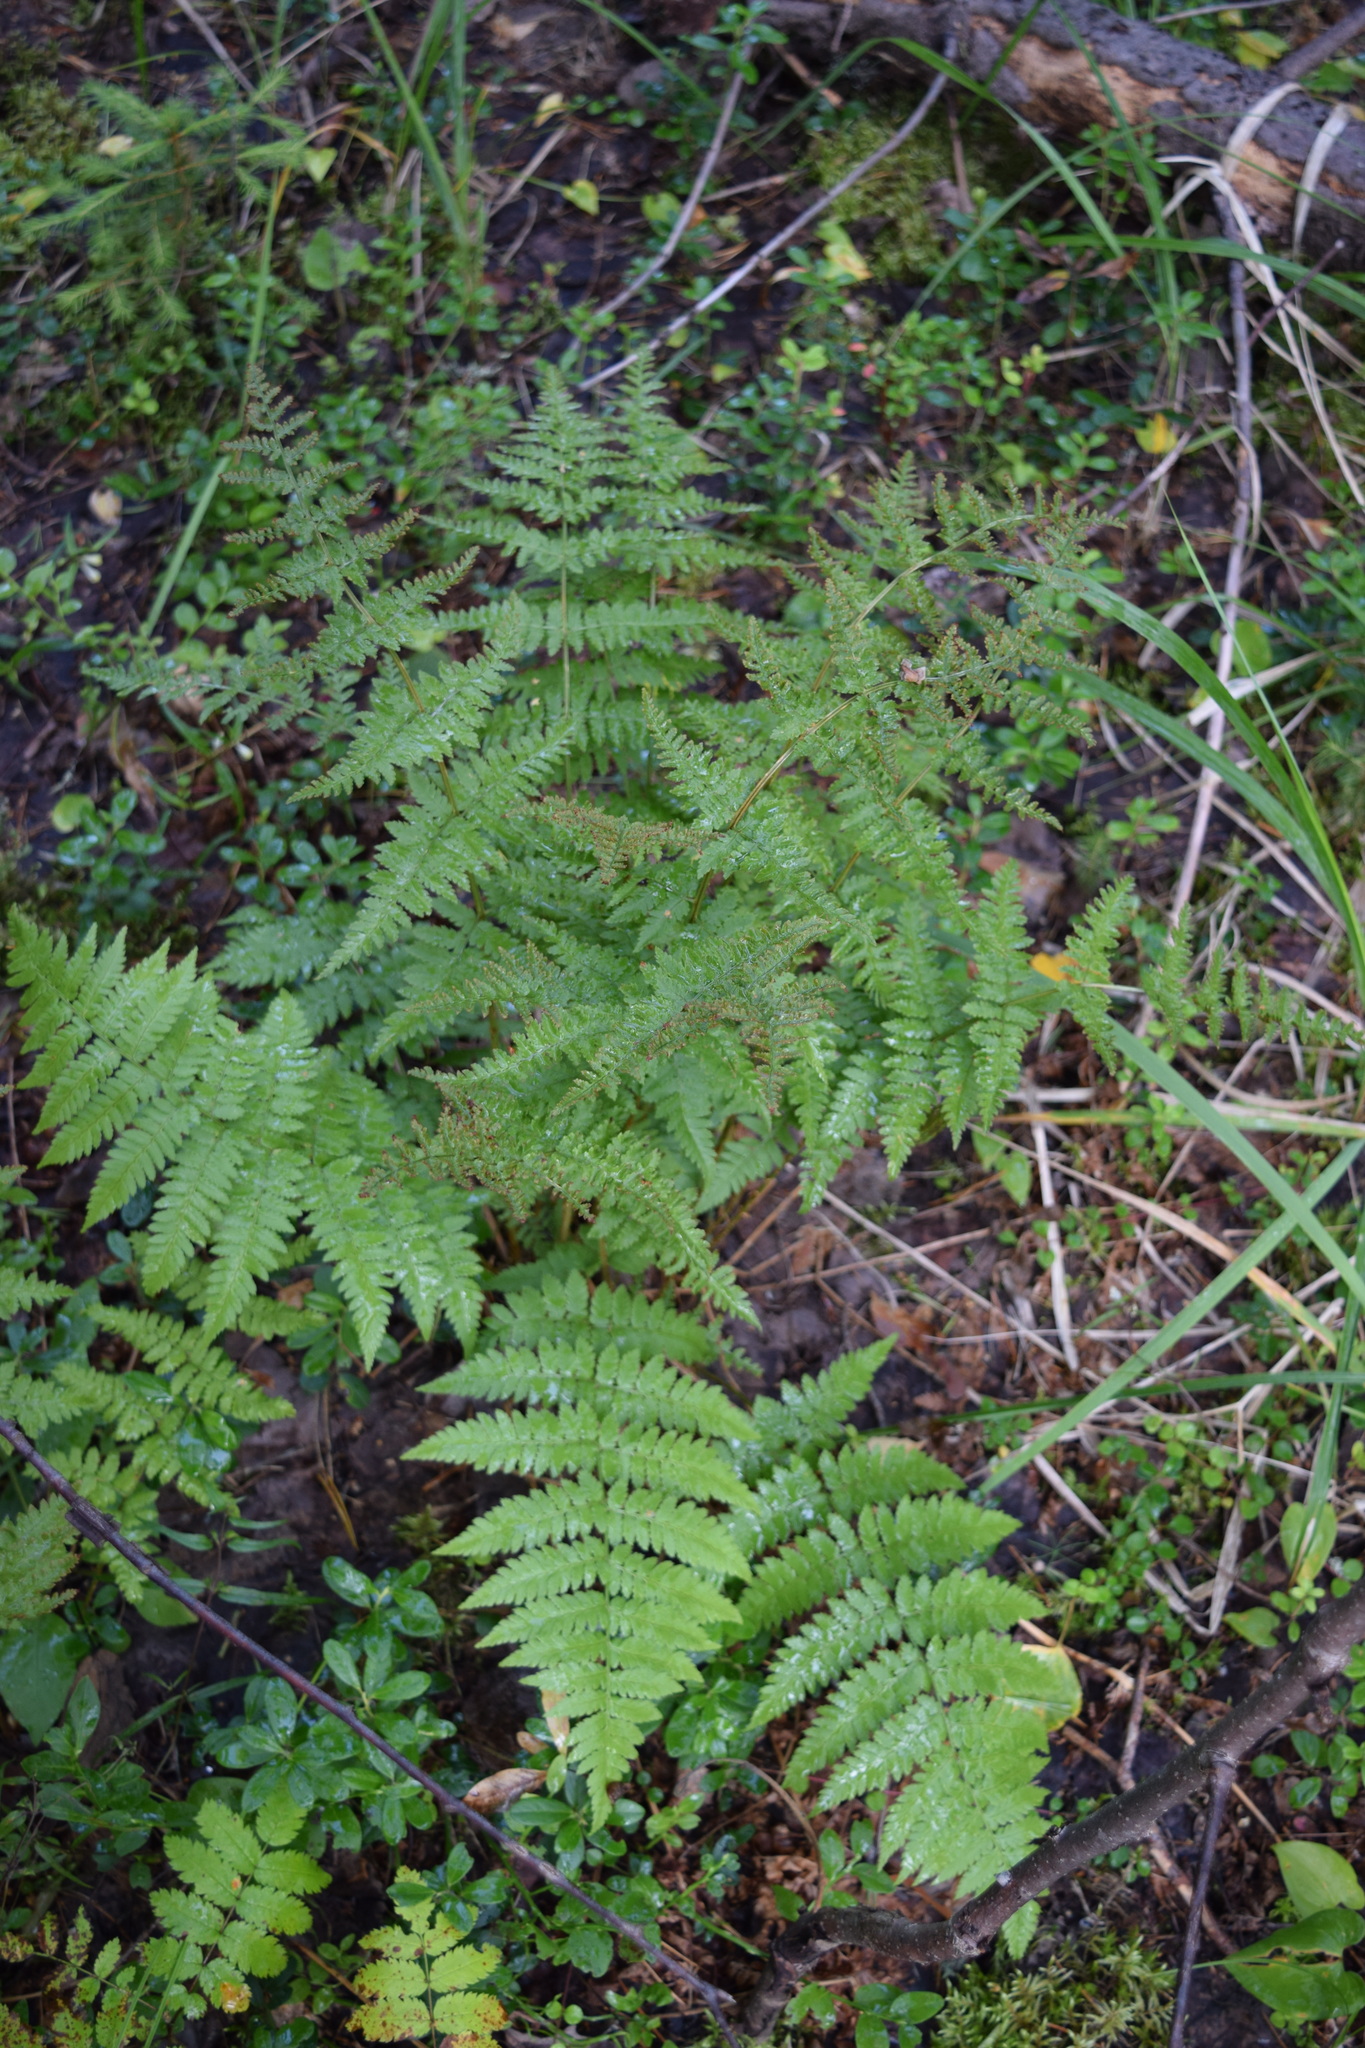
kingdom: Plantae
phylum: Tracheophyta
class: Polypodiopsida
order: Polypodiales
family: Dryopteridaceae
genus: Dryopteris
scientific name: Dryopteris carthusiana
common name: Narrow buckler-fern
